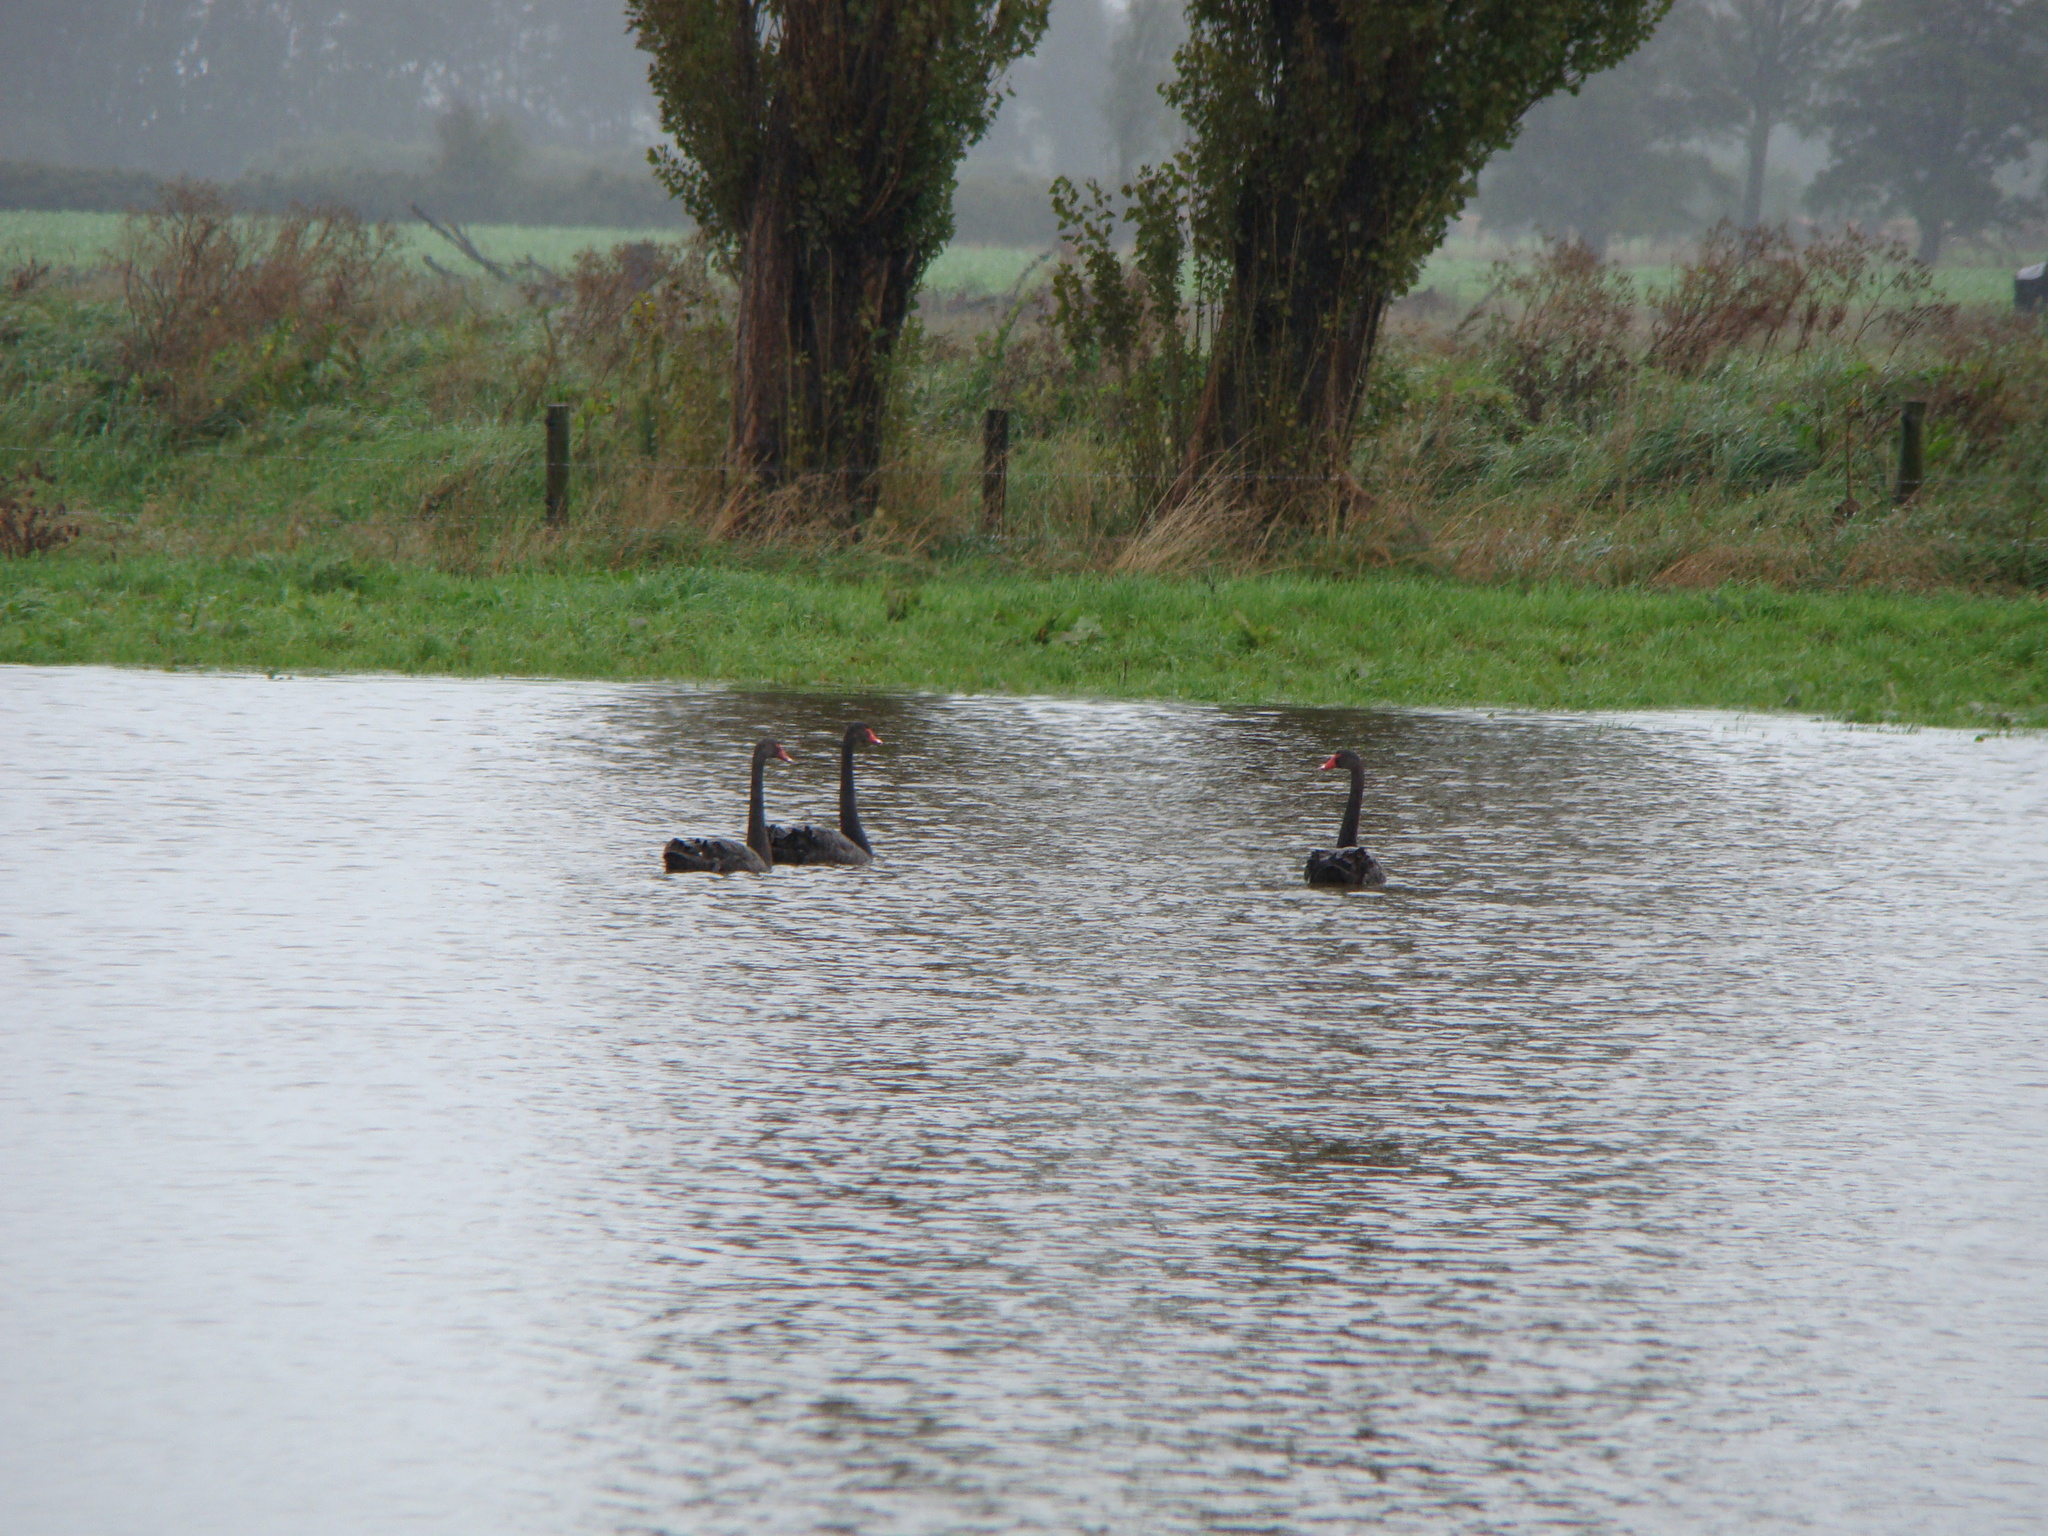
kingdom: Animalia
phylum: Chordata
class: Aves
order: Anseriformes
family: Anatidae
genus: Cygnus
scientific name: Cygnus atratus
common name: Black swan
